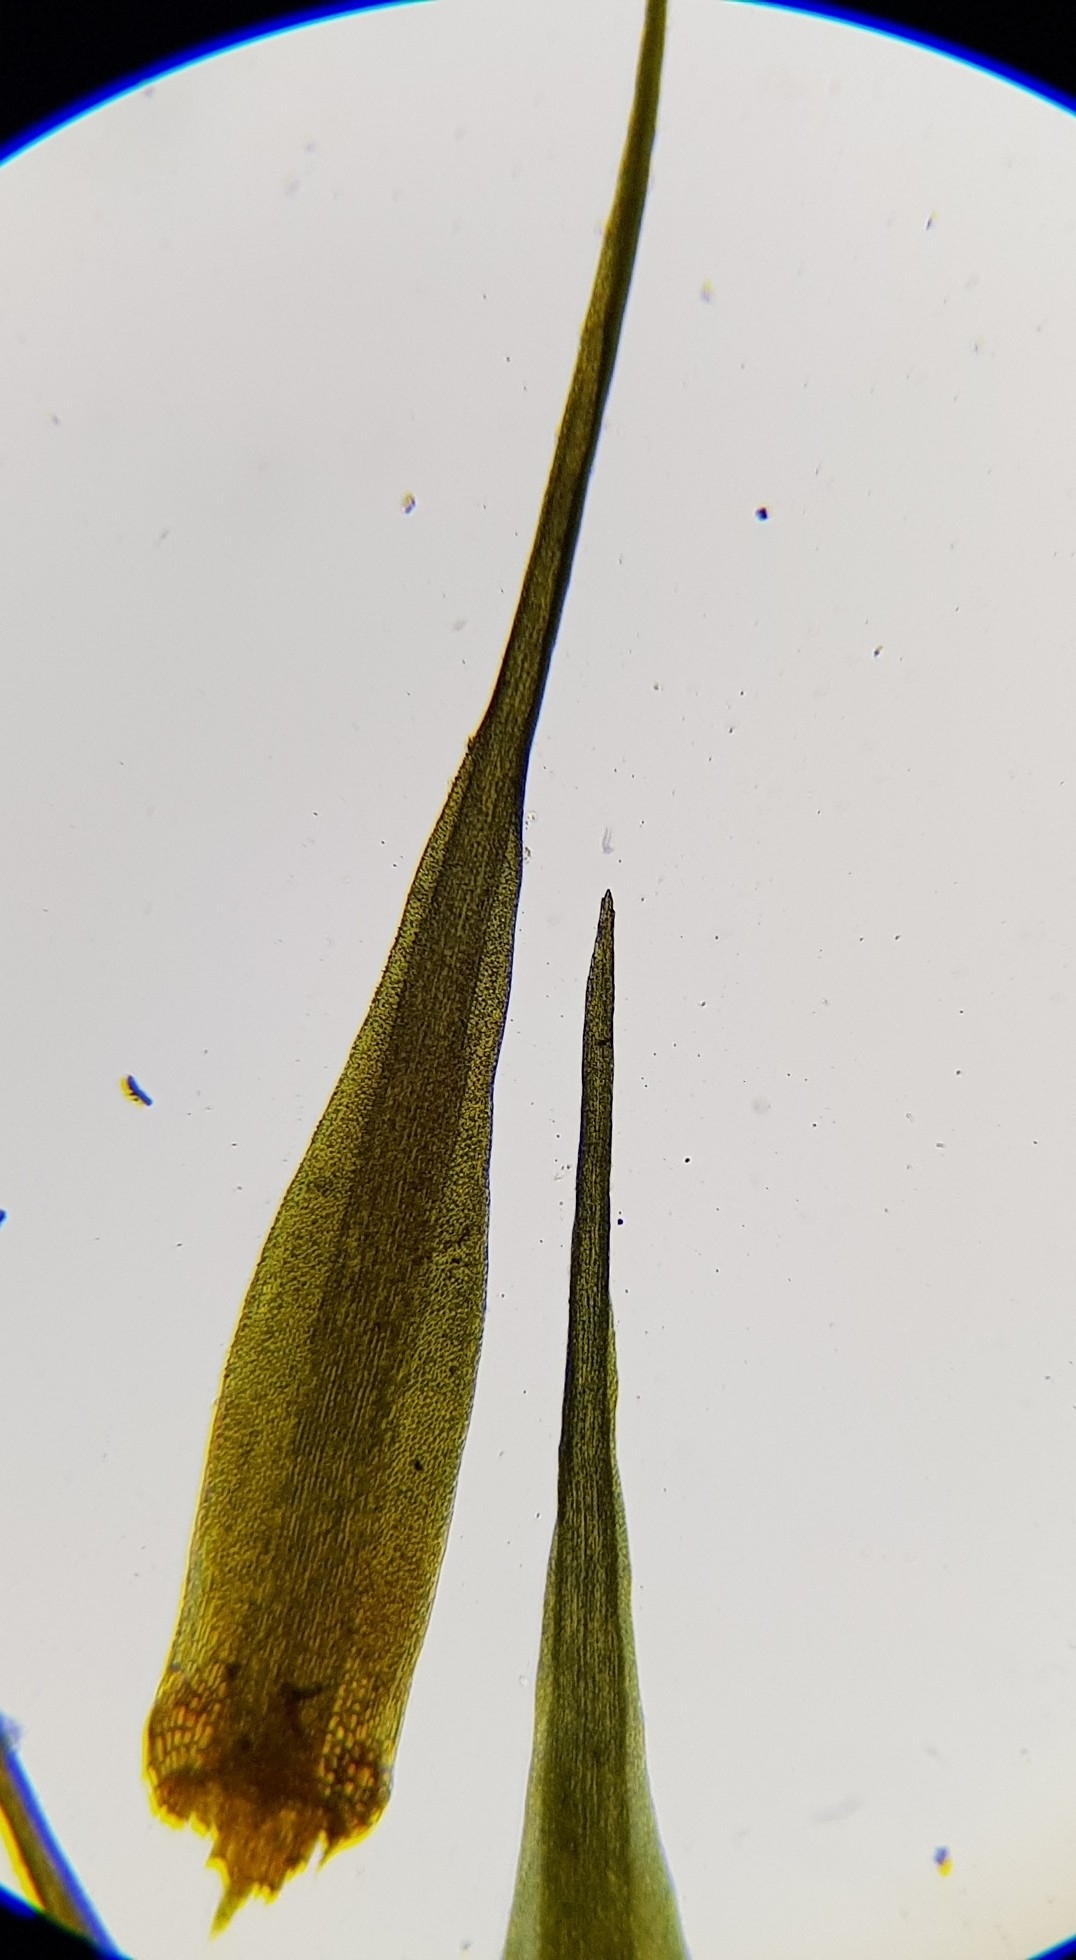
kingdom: Plantae
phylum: Bryophyta
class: Bryopsida
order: Dicranales
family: Leucobryaceae
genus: Campylopus
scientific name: Campylopus flexuosus
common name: Rusty swan-neck moss
